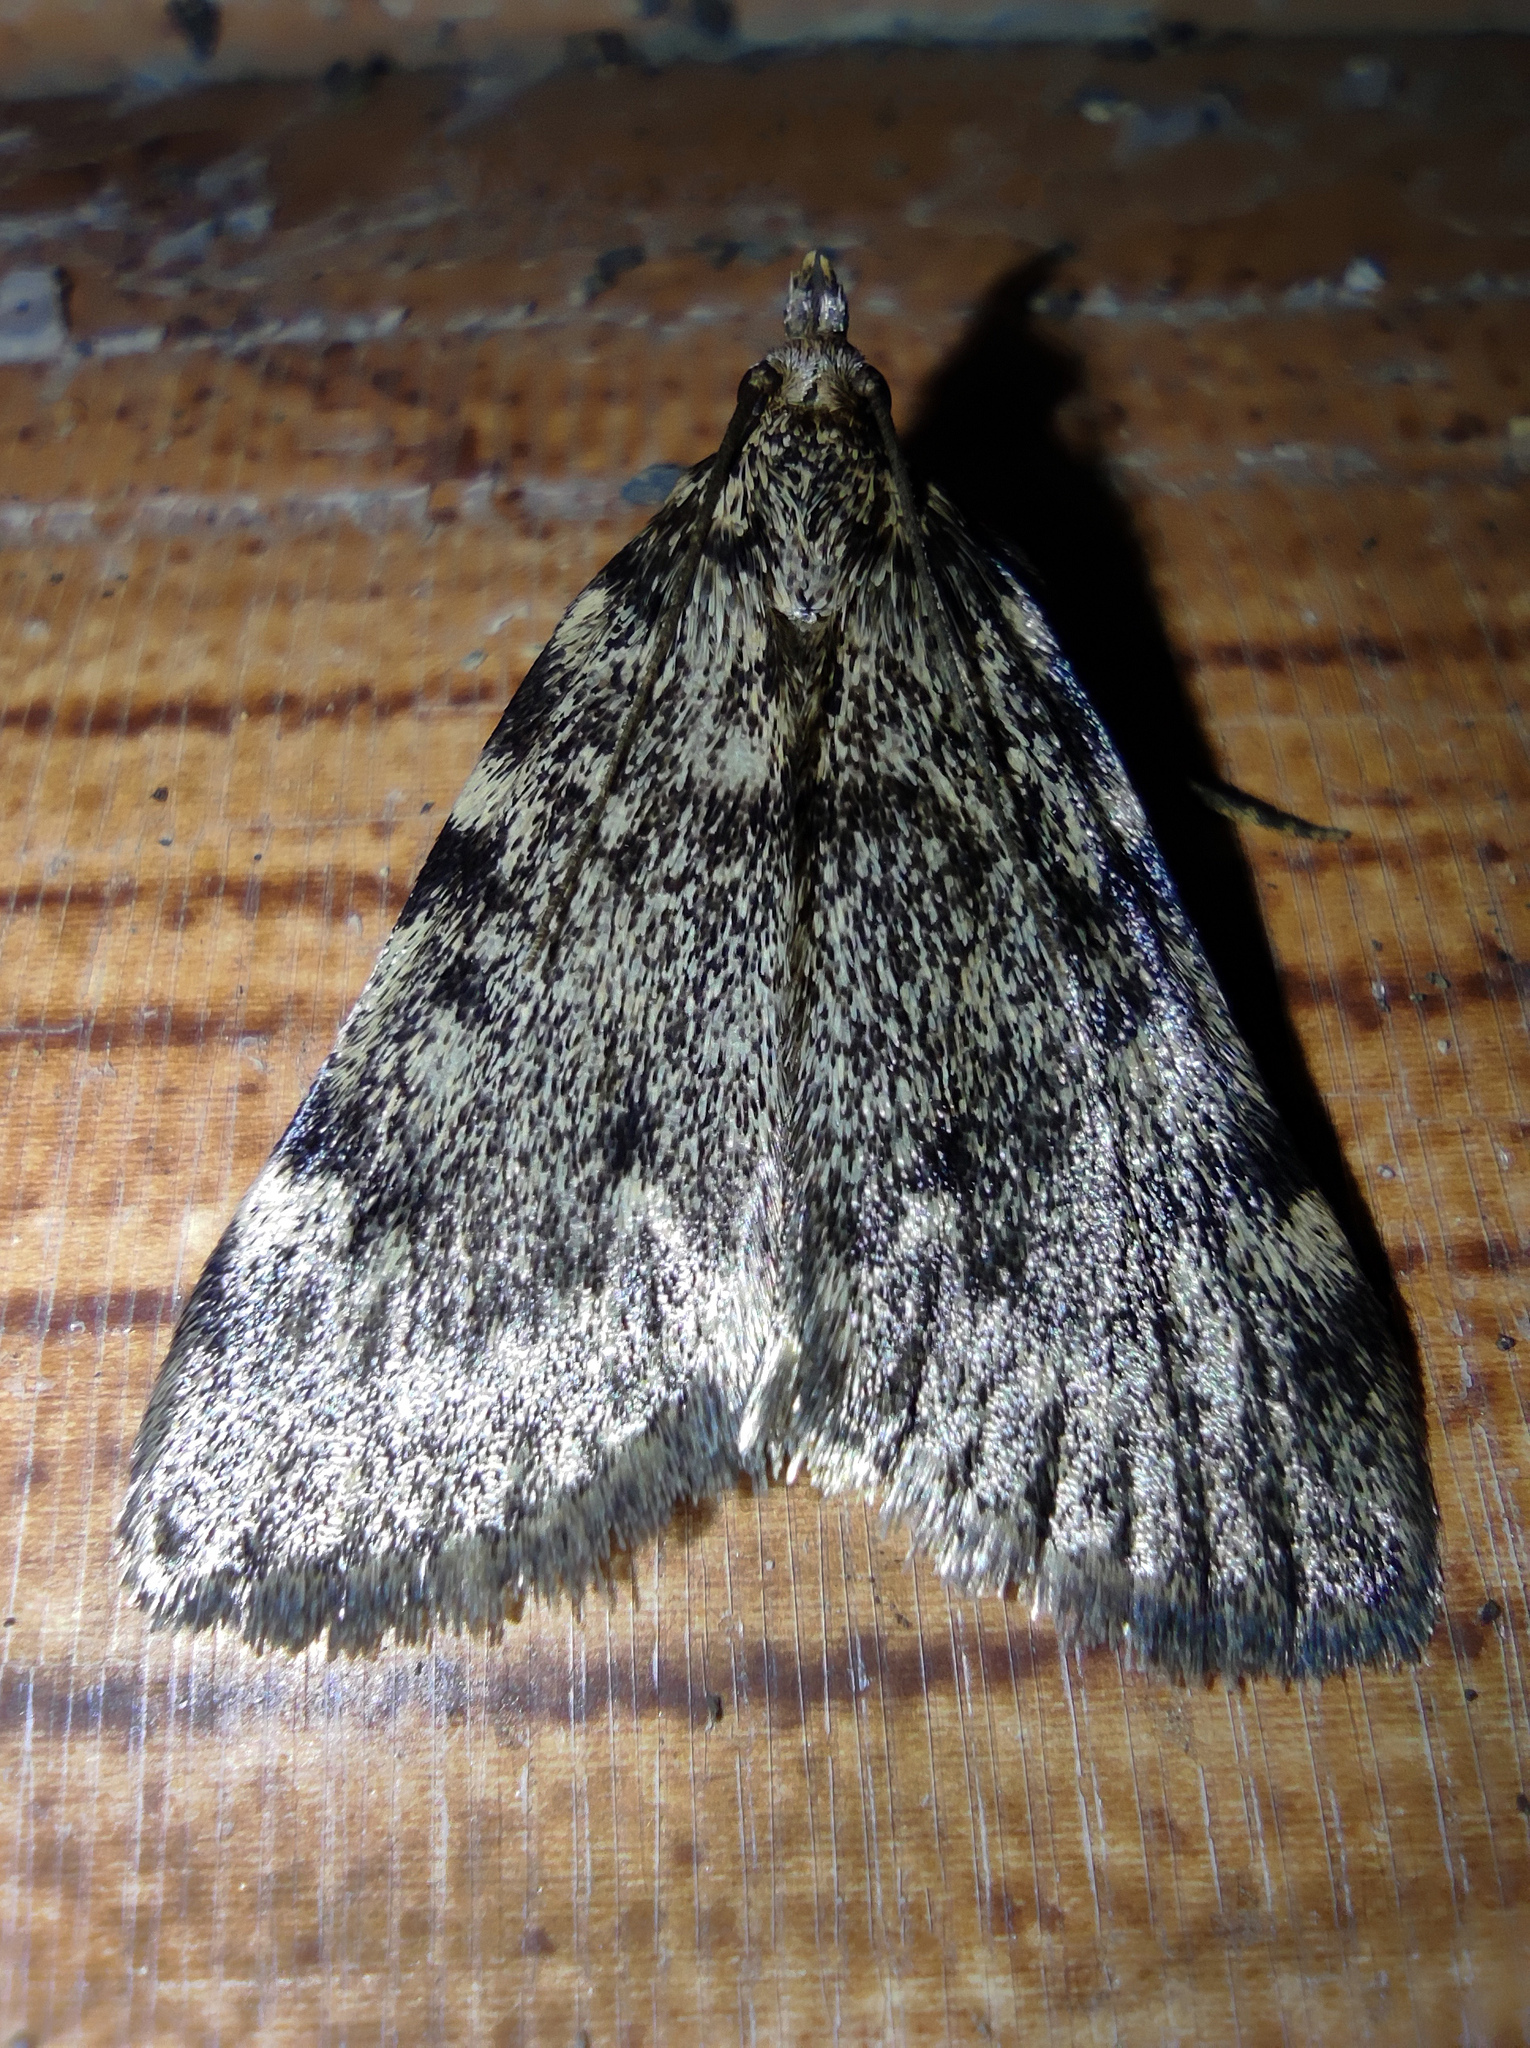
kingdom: Animalia
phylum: Arthropoda
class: Insecta
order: Lepidoptera
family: Pyralidae
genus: Aglossa
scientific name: Aglossa pinguinalis
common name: Large tabby
